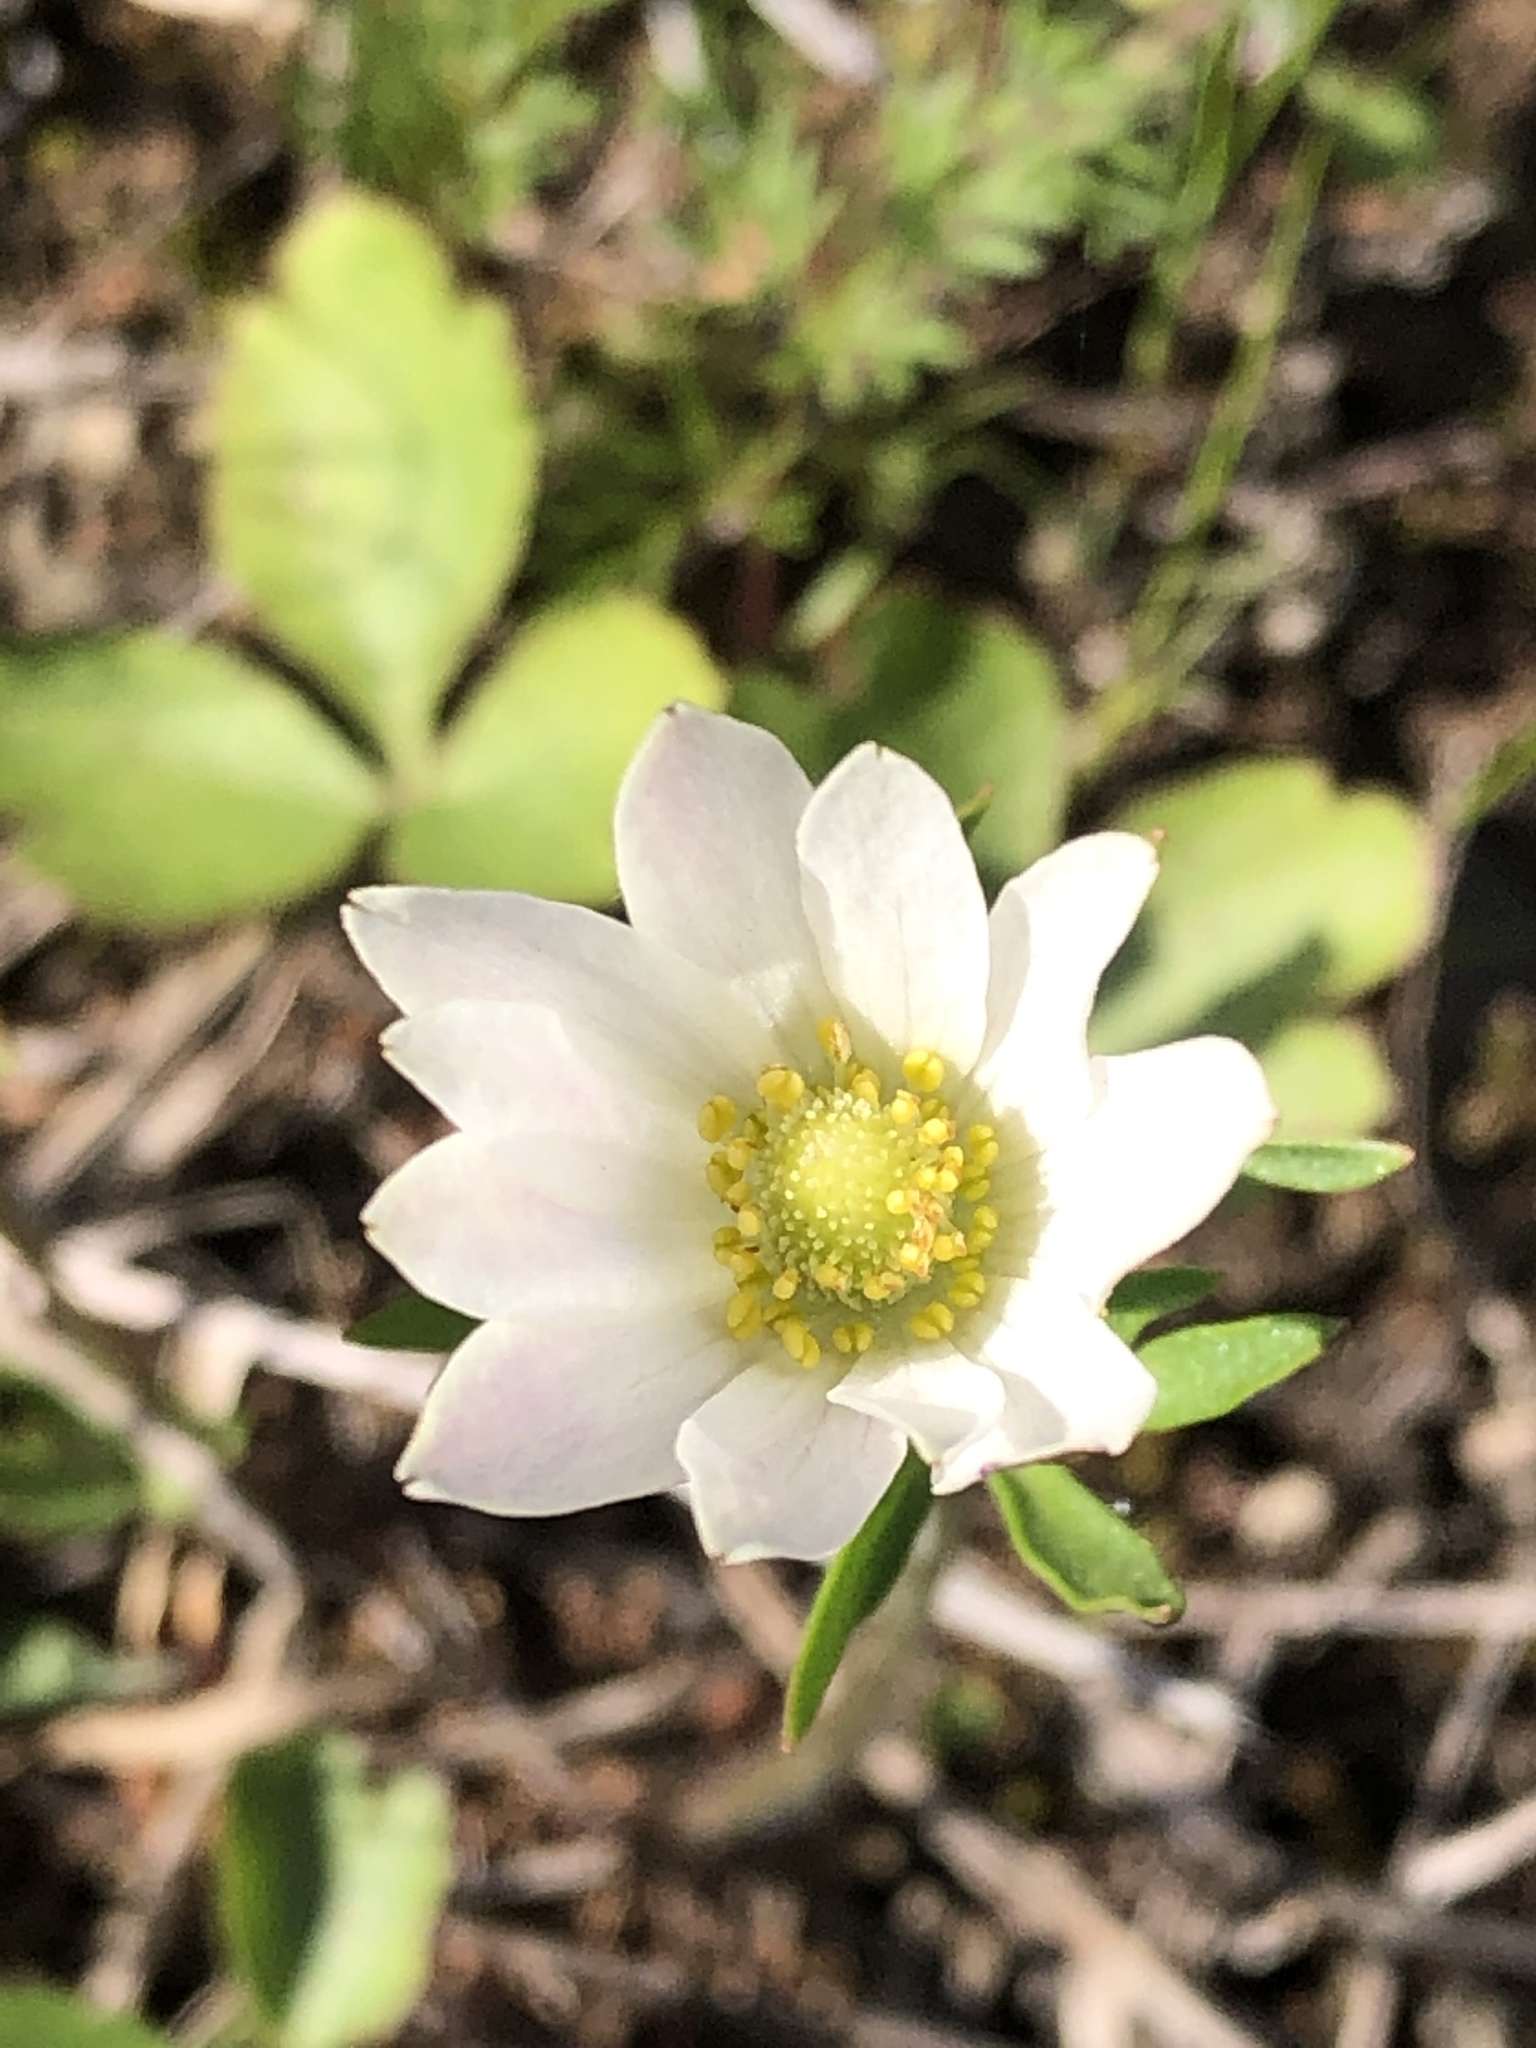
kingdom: Plantae
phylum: Tracheophyta
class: Magnoliopsida
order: Ranunculales
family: Ranunculaceae
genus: Anemone
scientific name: Anemone berlandieri
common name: Ten-petal anemone
